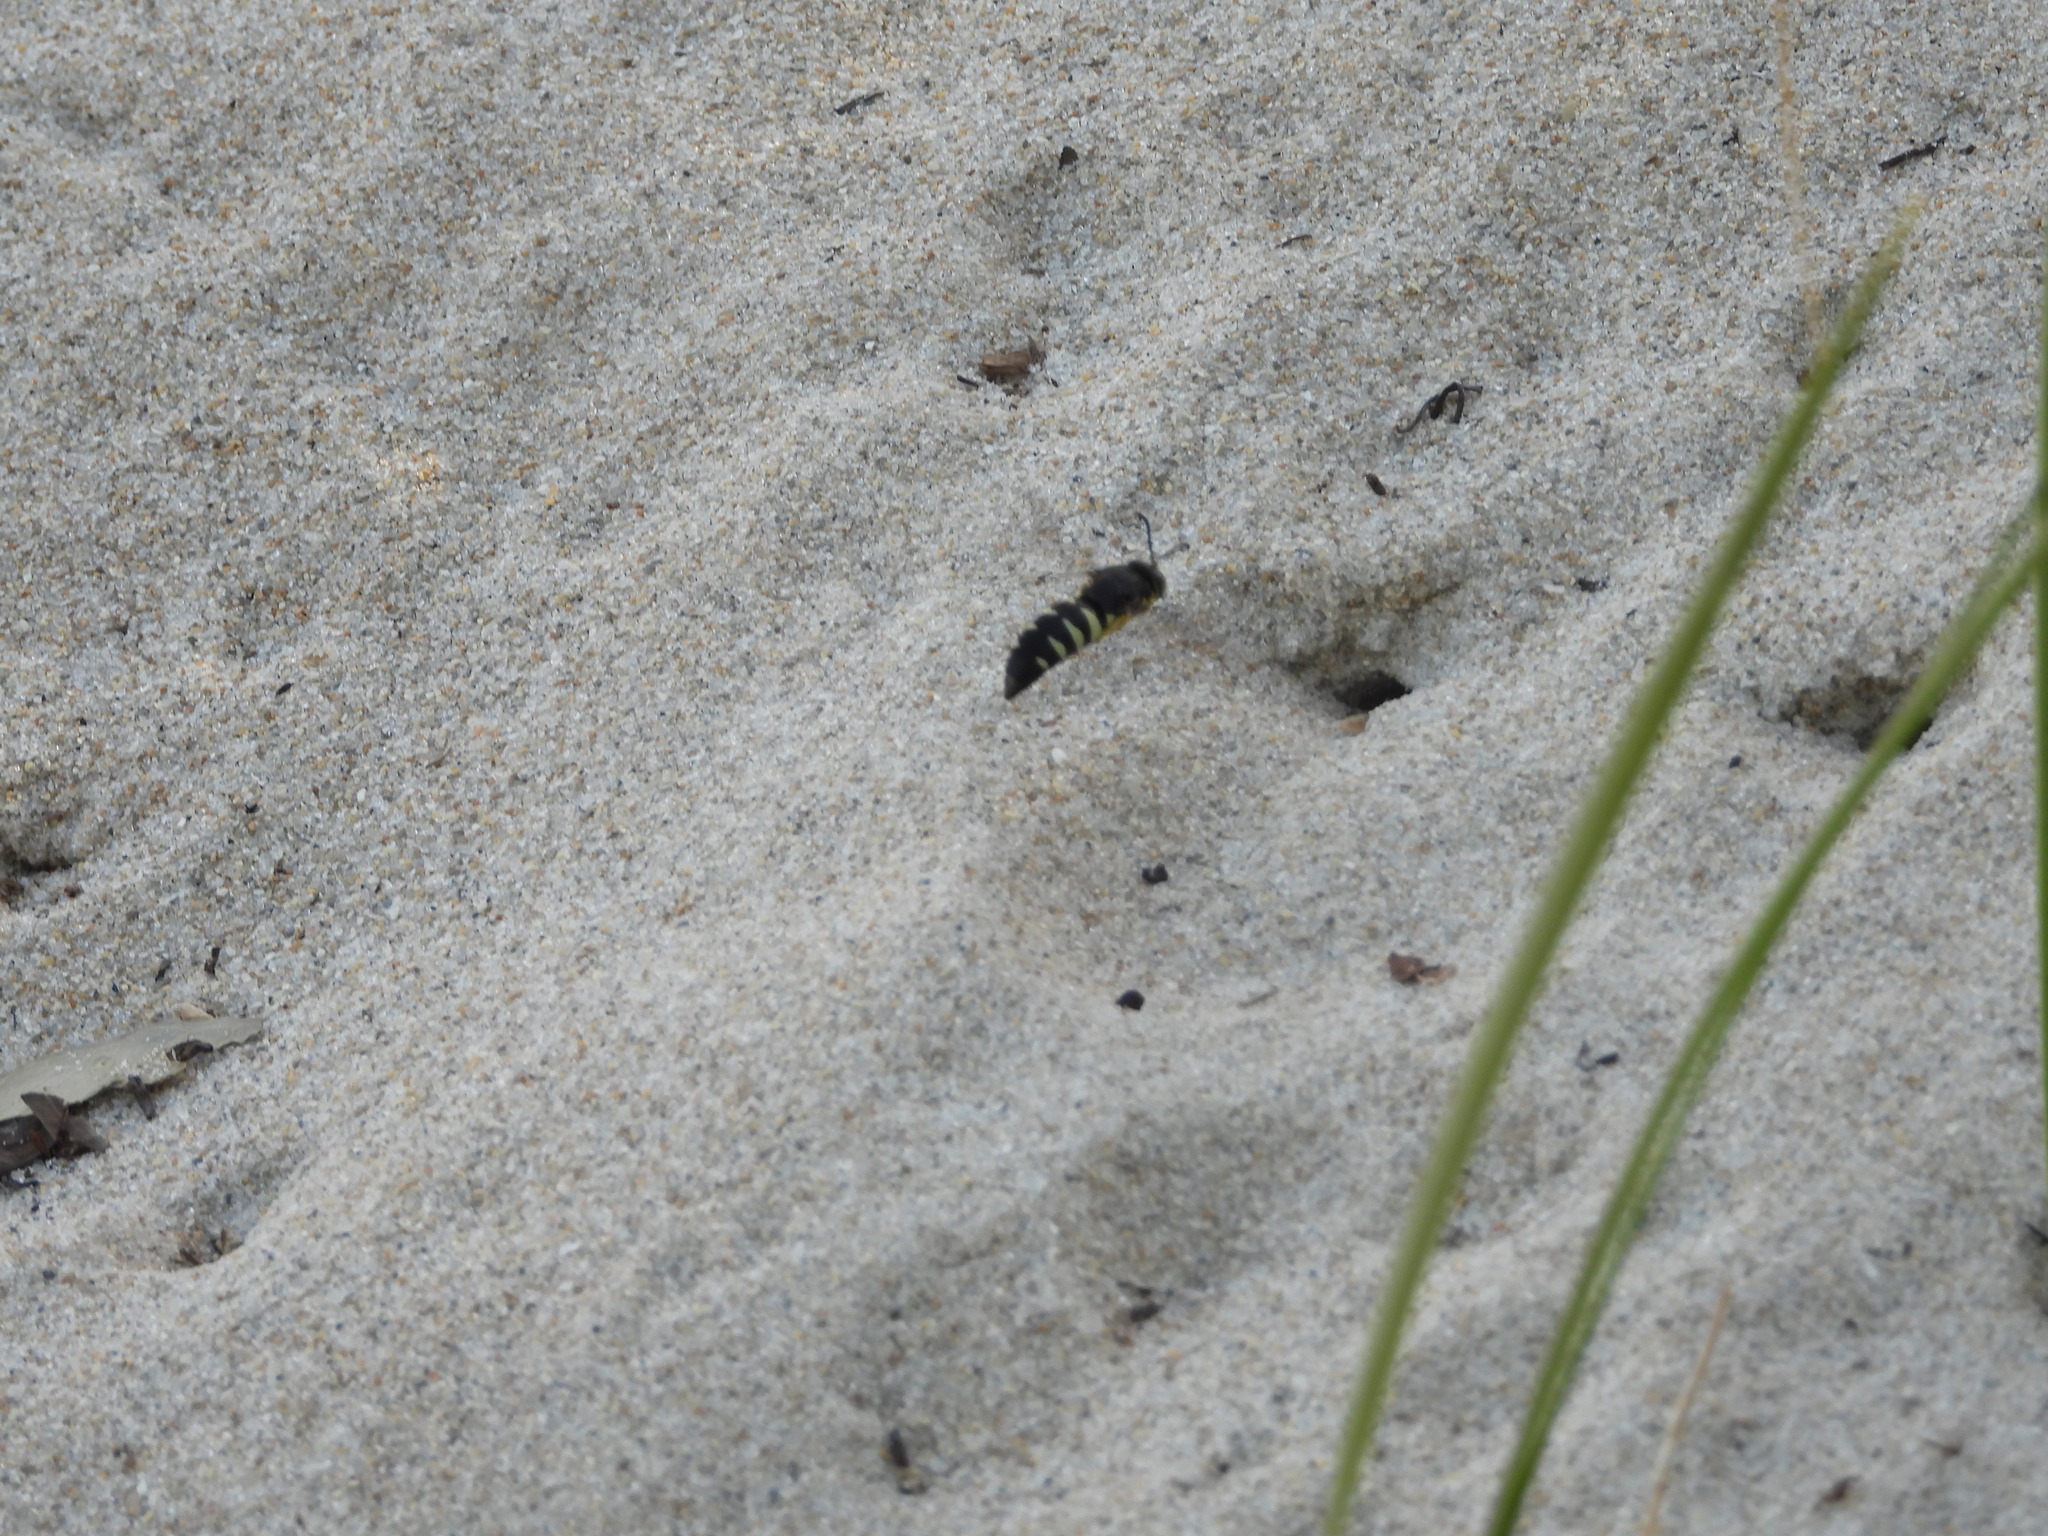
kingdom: Animalia
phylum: Arthropoda
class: Insecta
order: Hymenoptera
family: Crabronidae
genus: Bicyrtes
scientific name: Bicyrtes quadrifasciatus
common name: Four-banded stink bug hunter wasp
